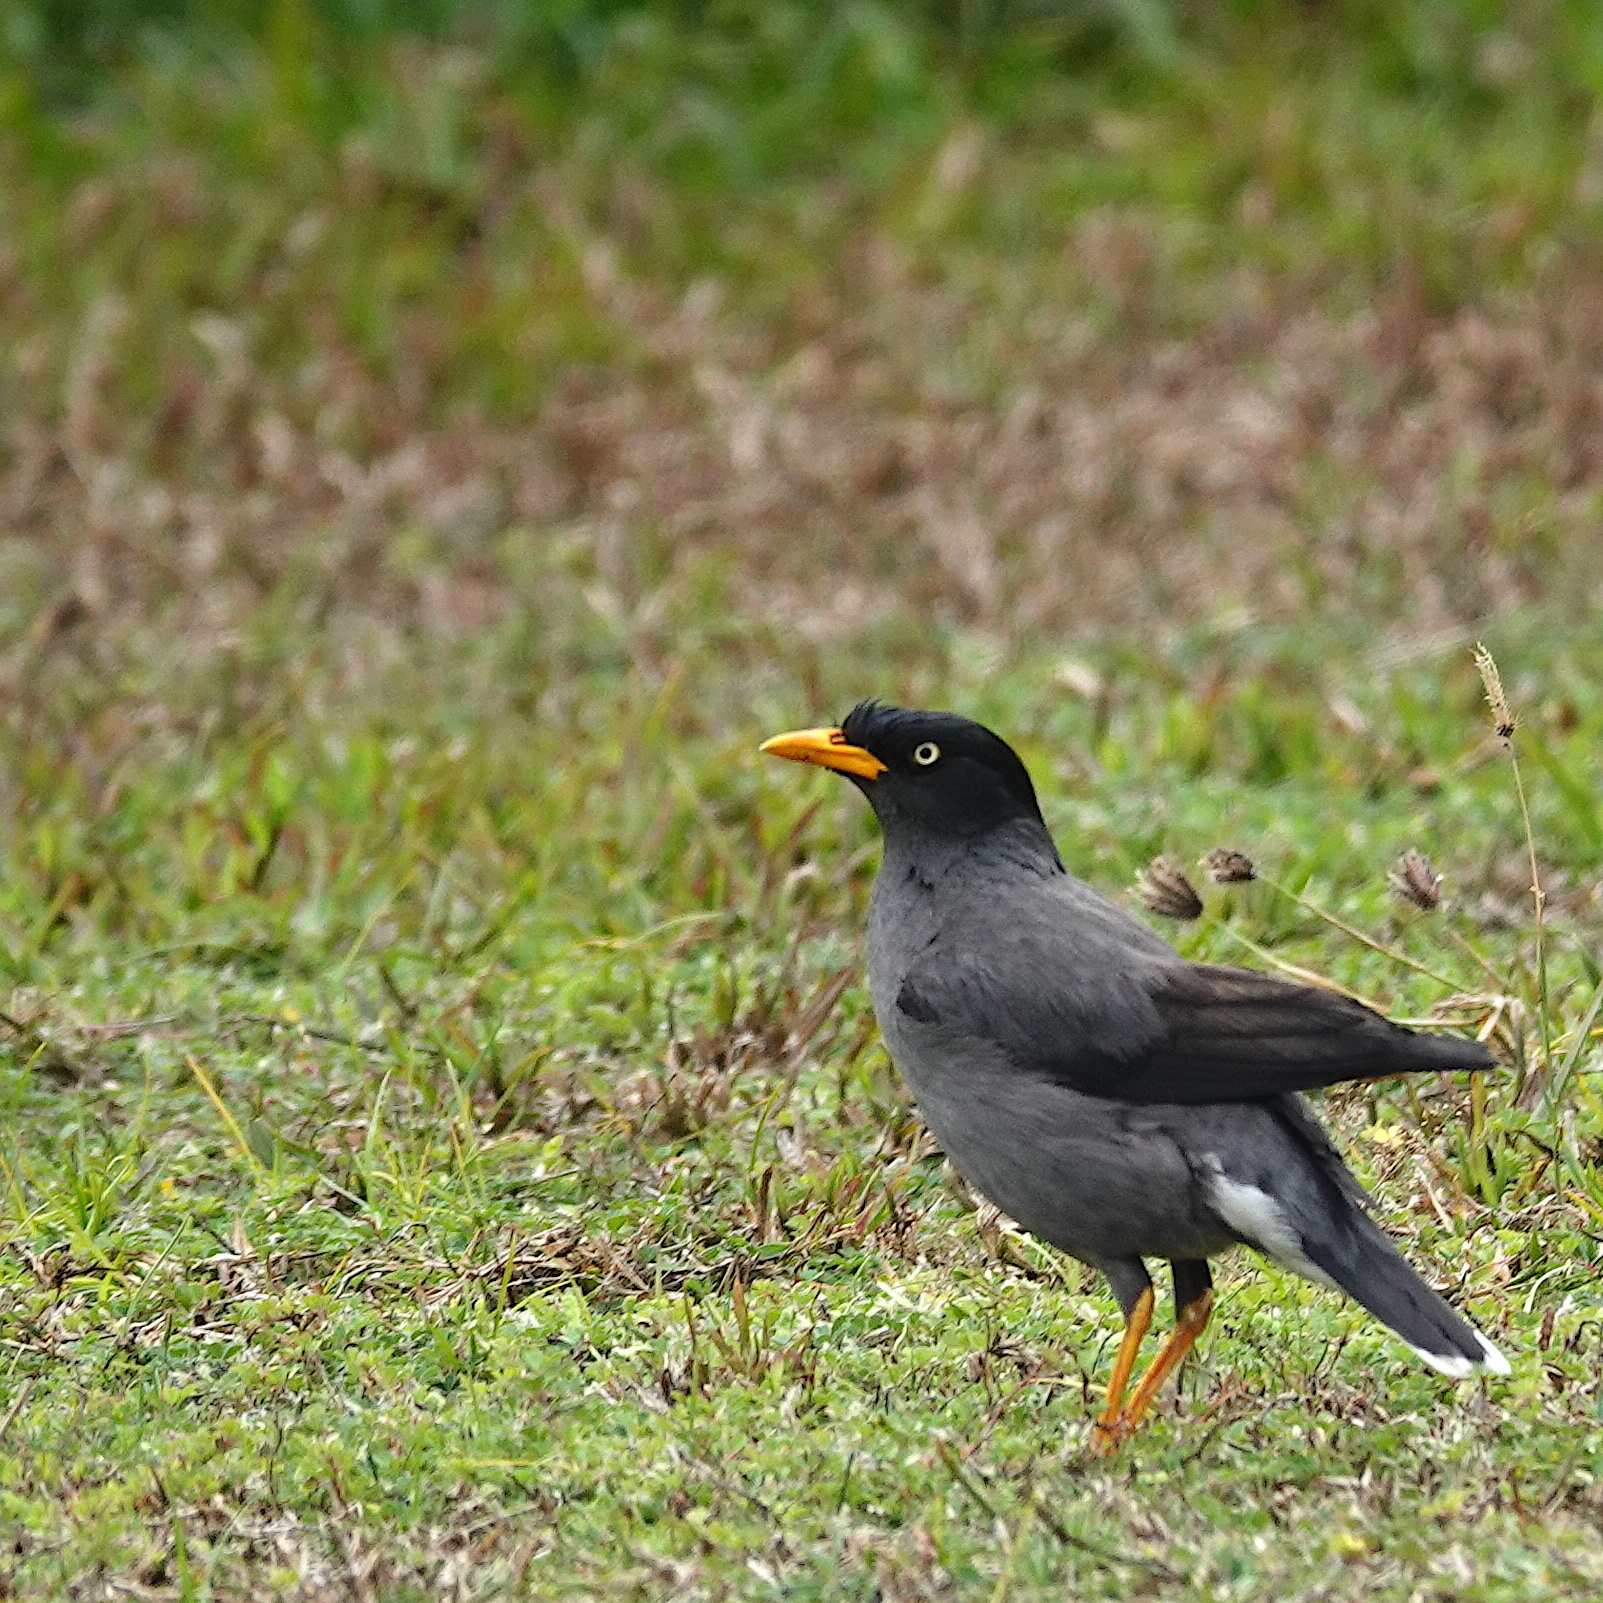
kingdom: Animalia
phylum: Chordata
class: Aves
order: Passeriformes
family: Sturnidae
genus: Acridotheres
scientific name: Acridotheres javanicus
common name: Javan myna
